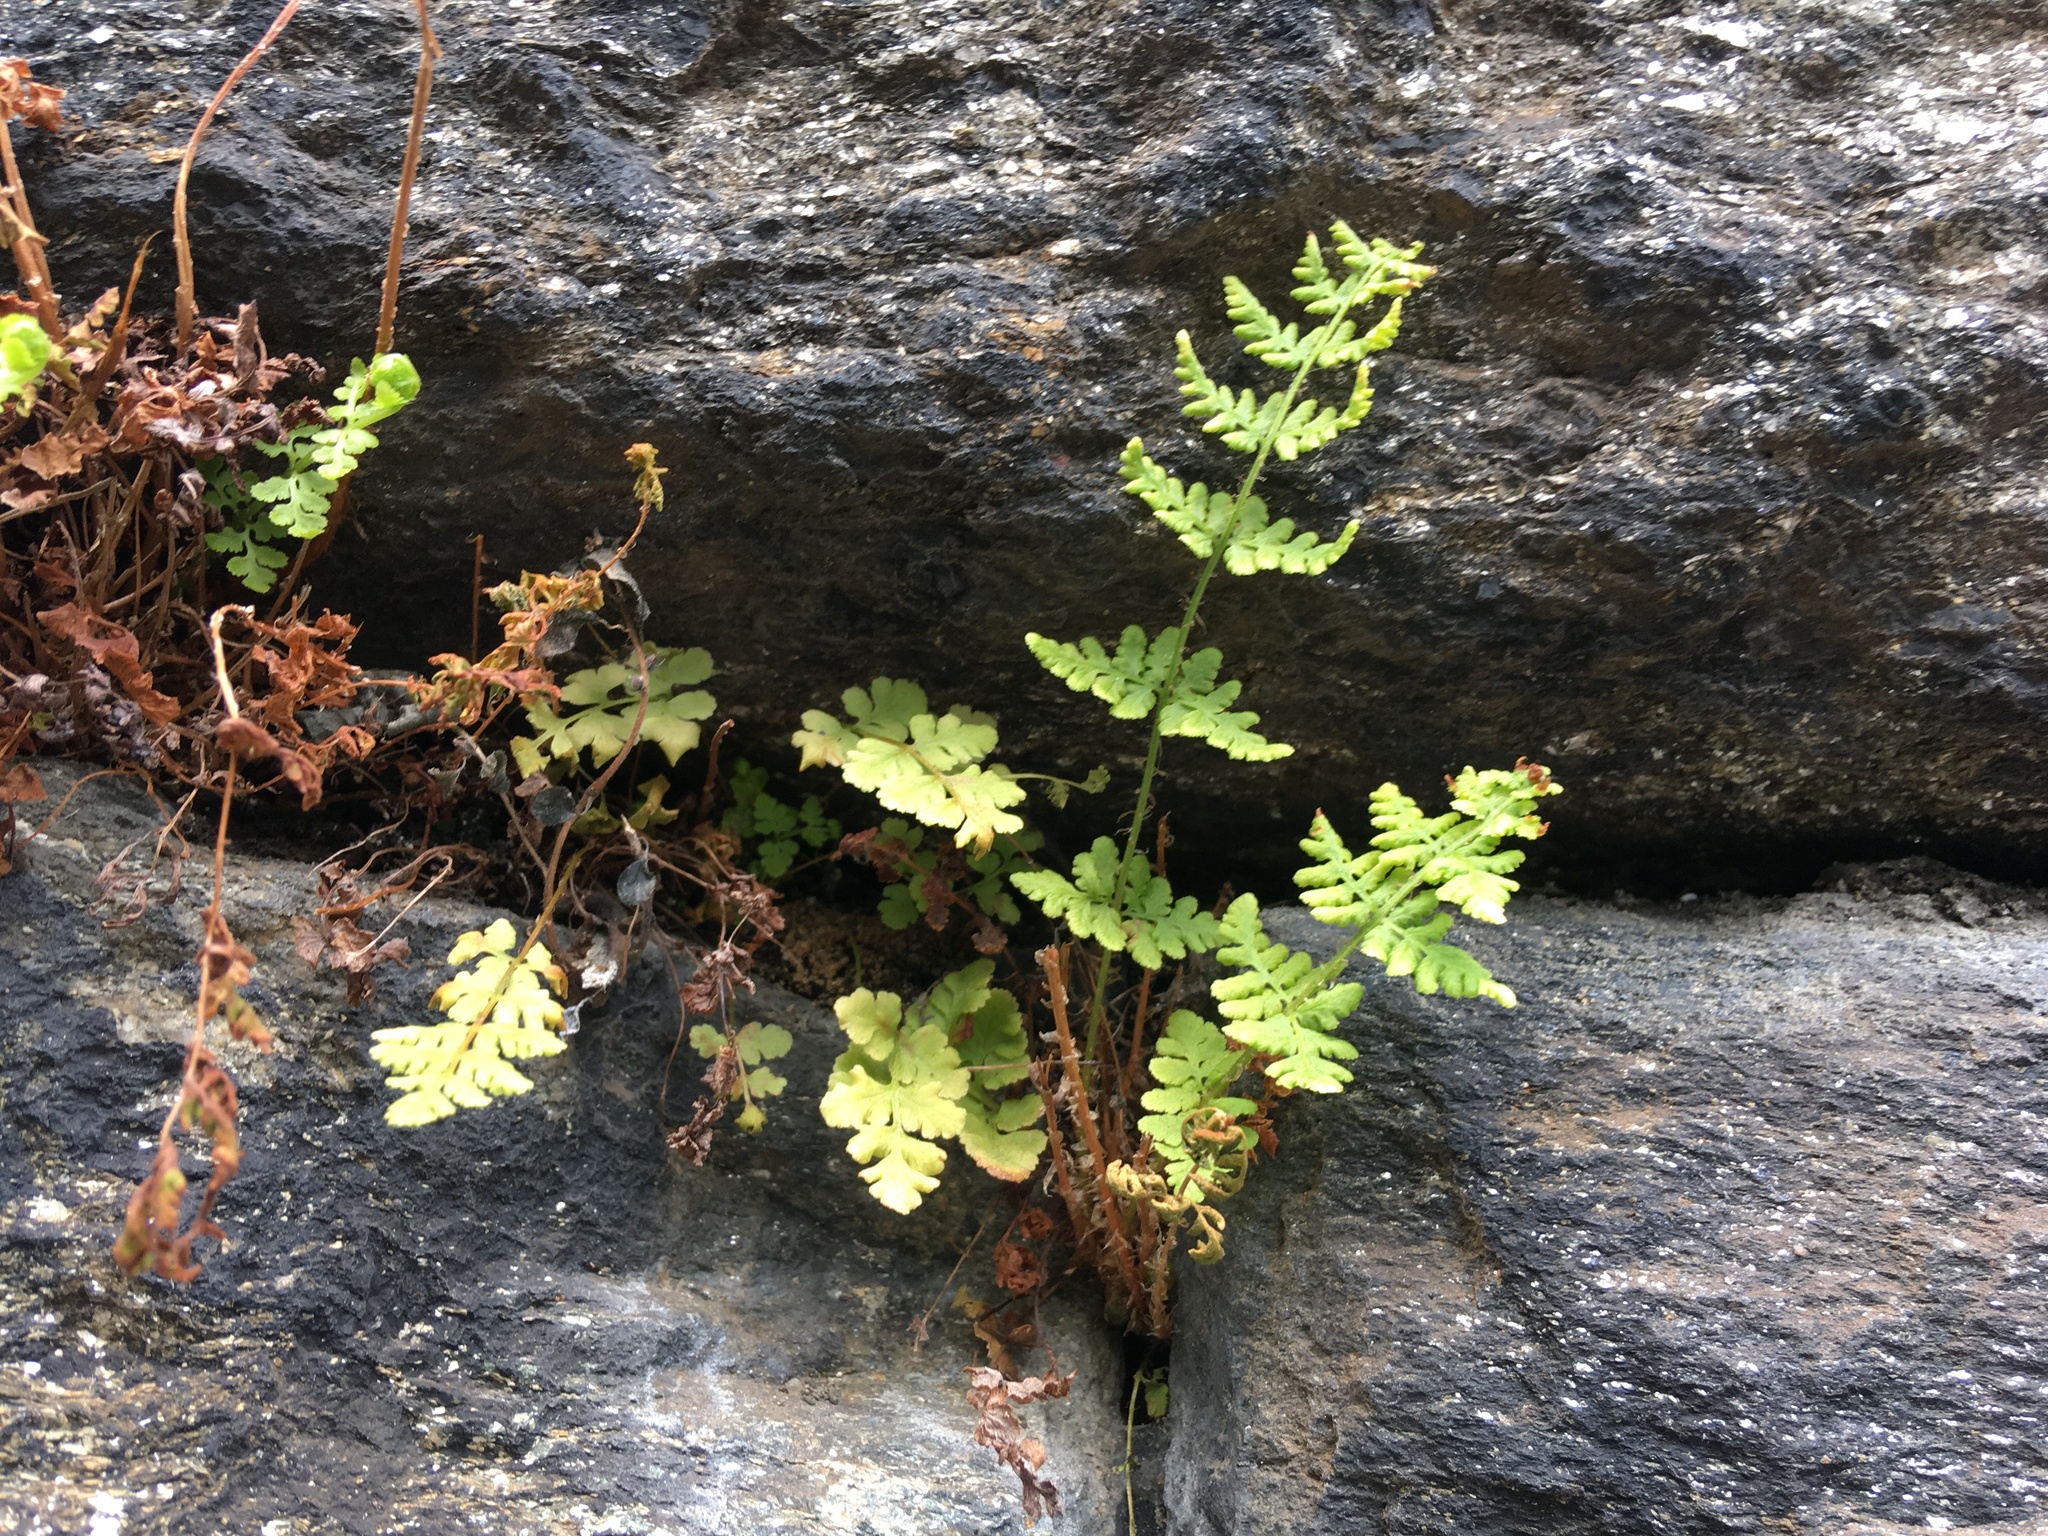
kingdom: Plantae
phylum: Tracheophyta
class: Polypodiopsida
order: Polypodiales
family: Woodsiaceae
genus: Physematium
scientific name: Physematium obtusum
